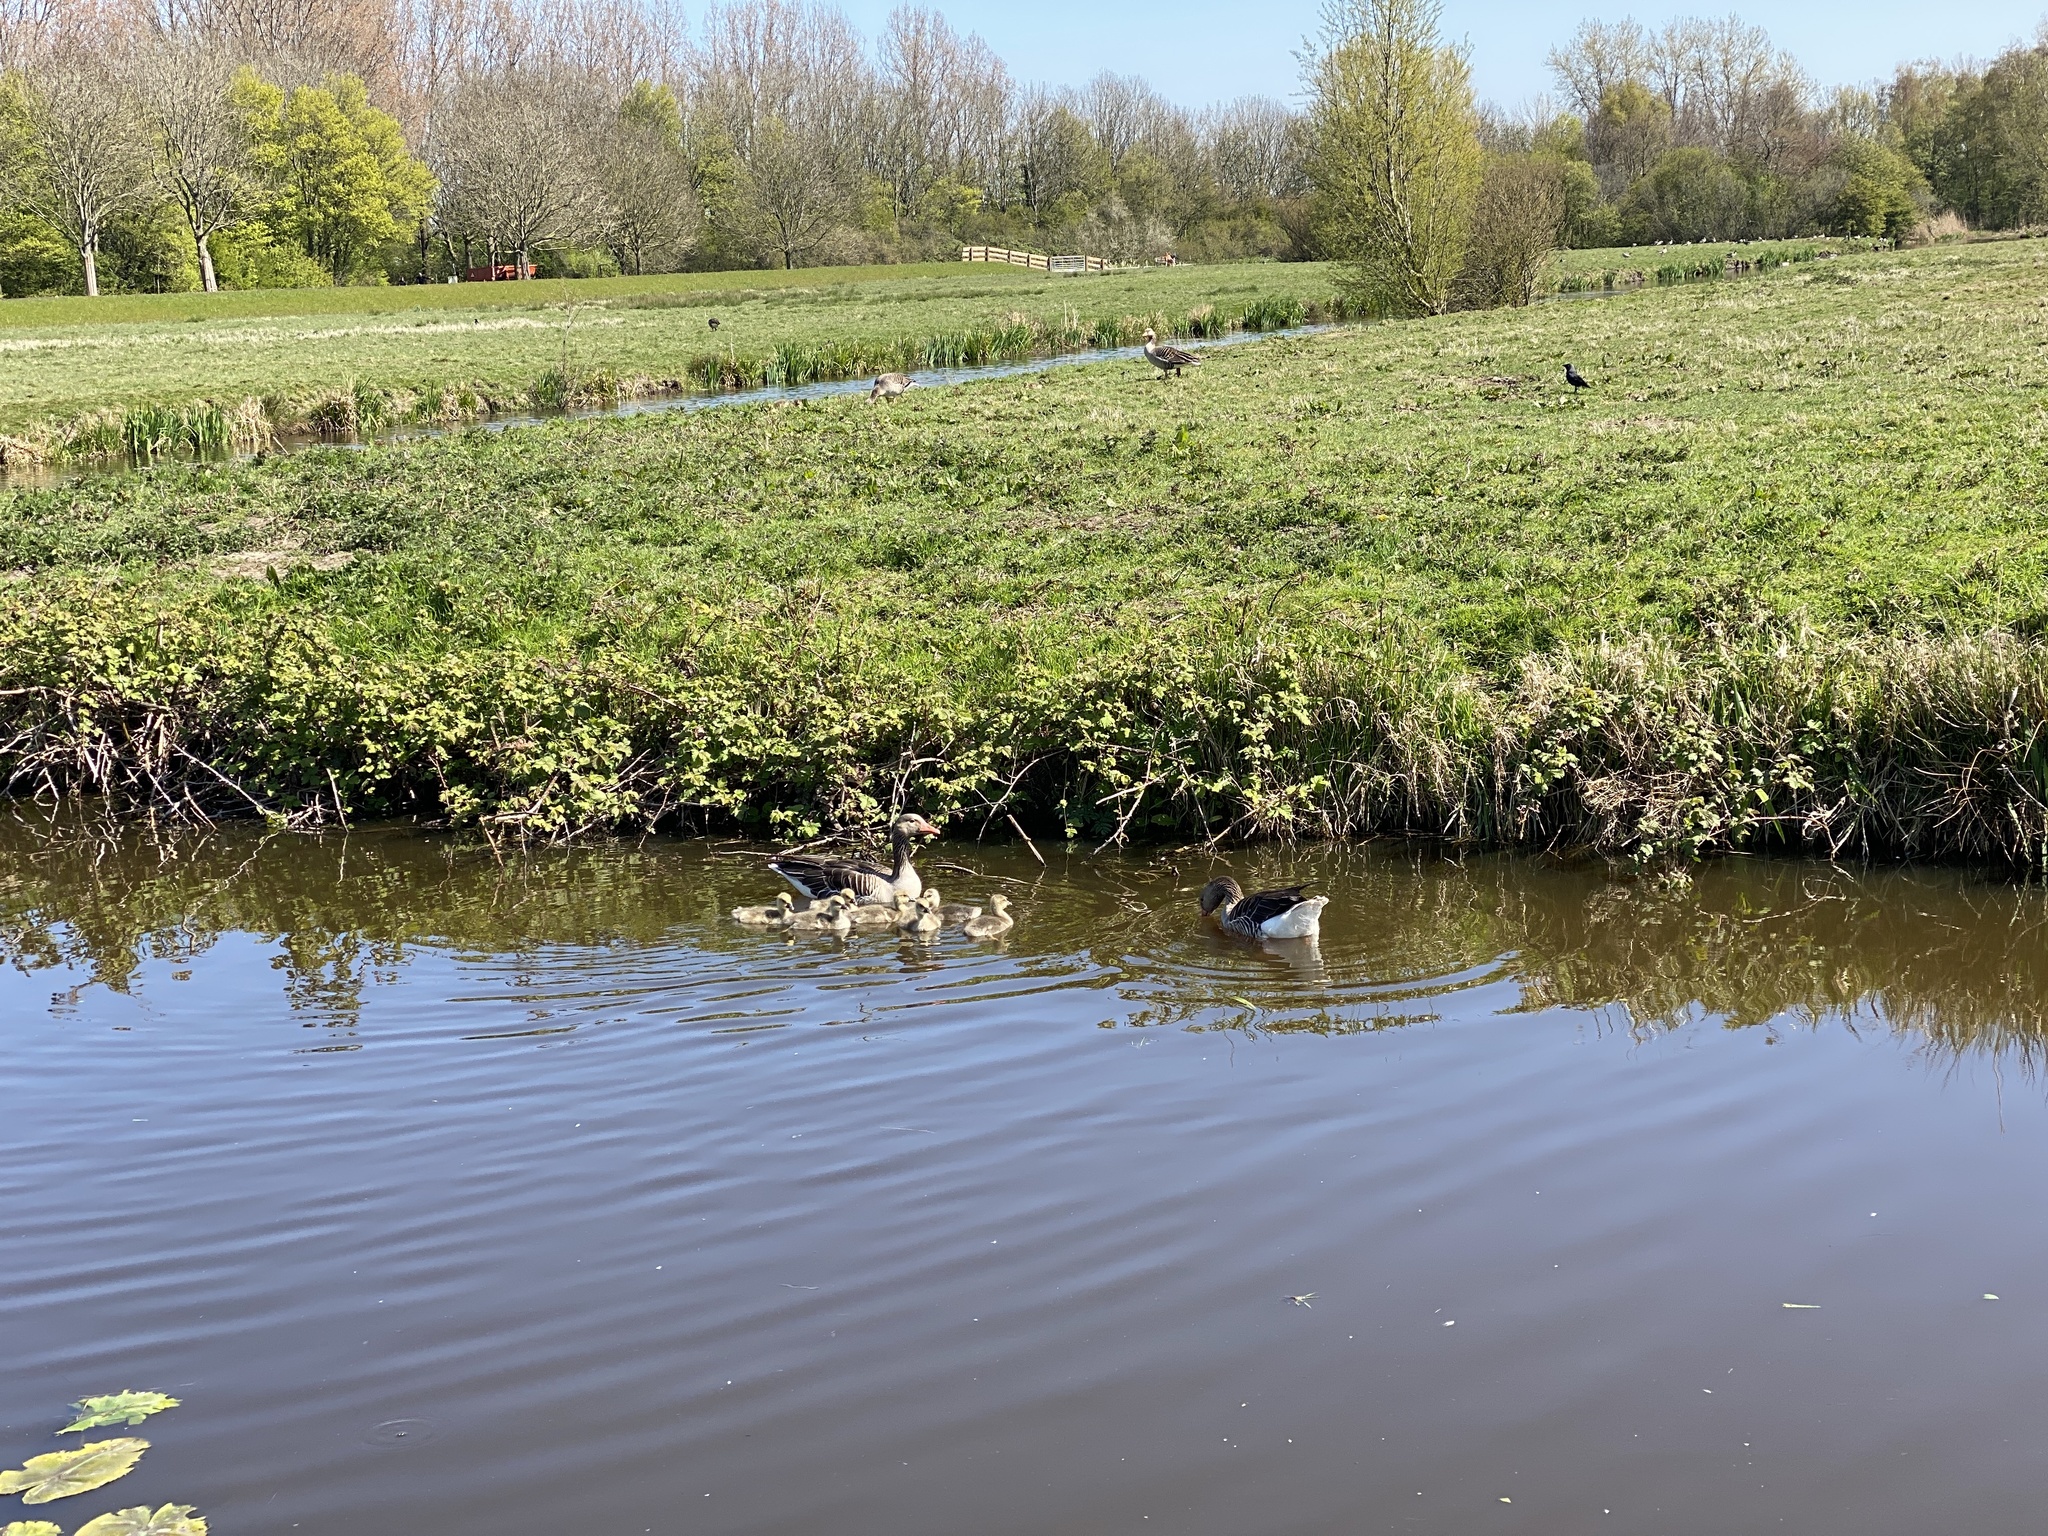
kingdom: Animalia
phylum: Chordata
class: Aves
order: Anseriformes
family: Anatidae
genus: Anser
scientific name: Anser anser
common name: Greylag goose
